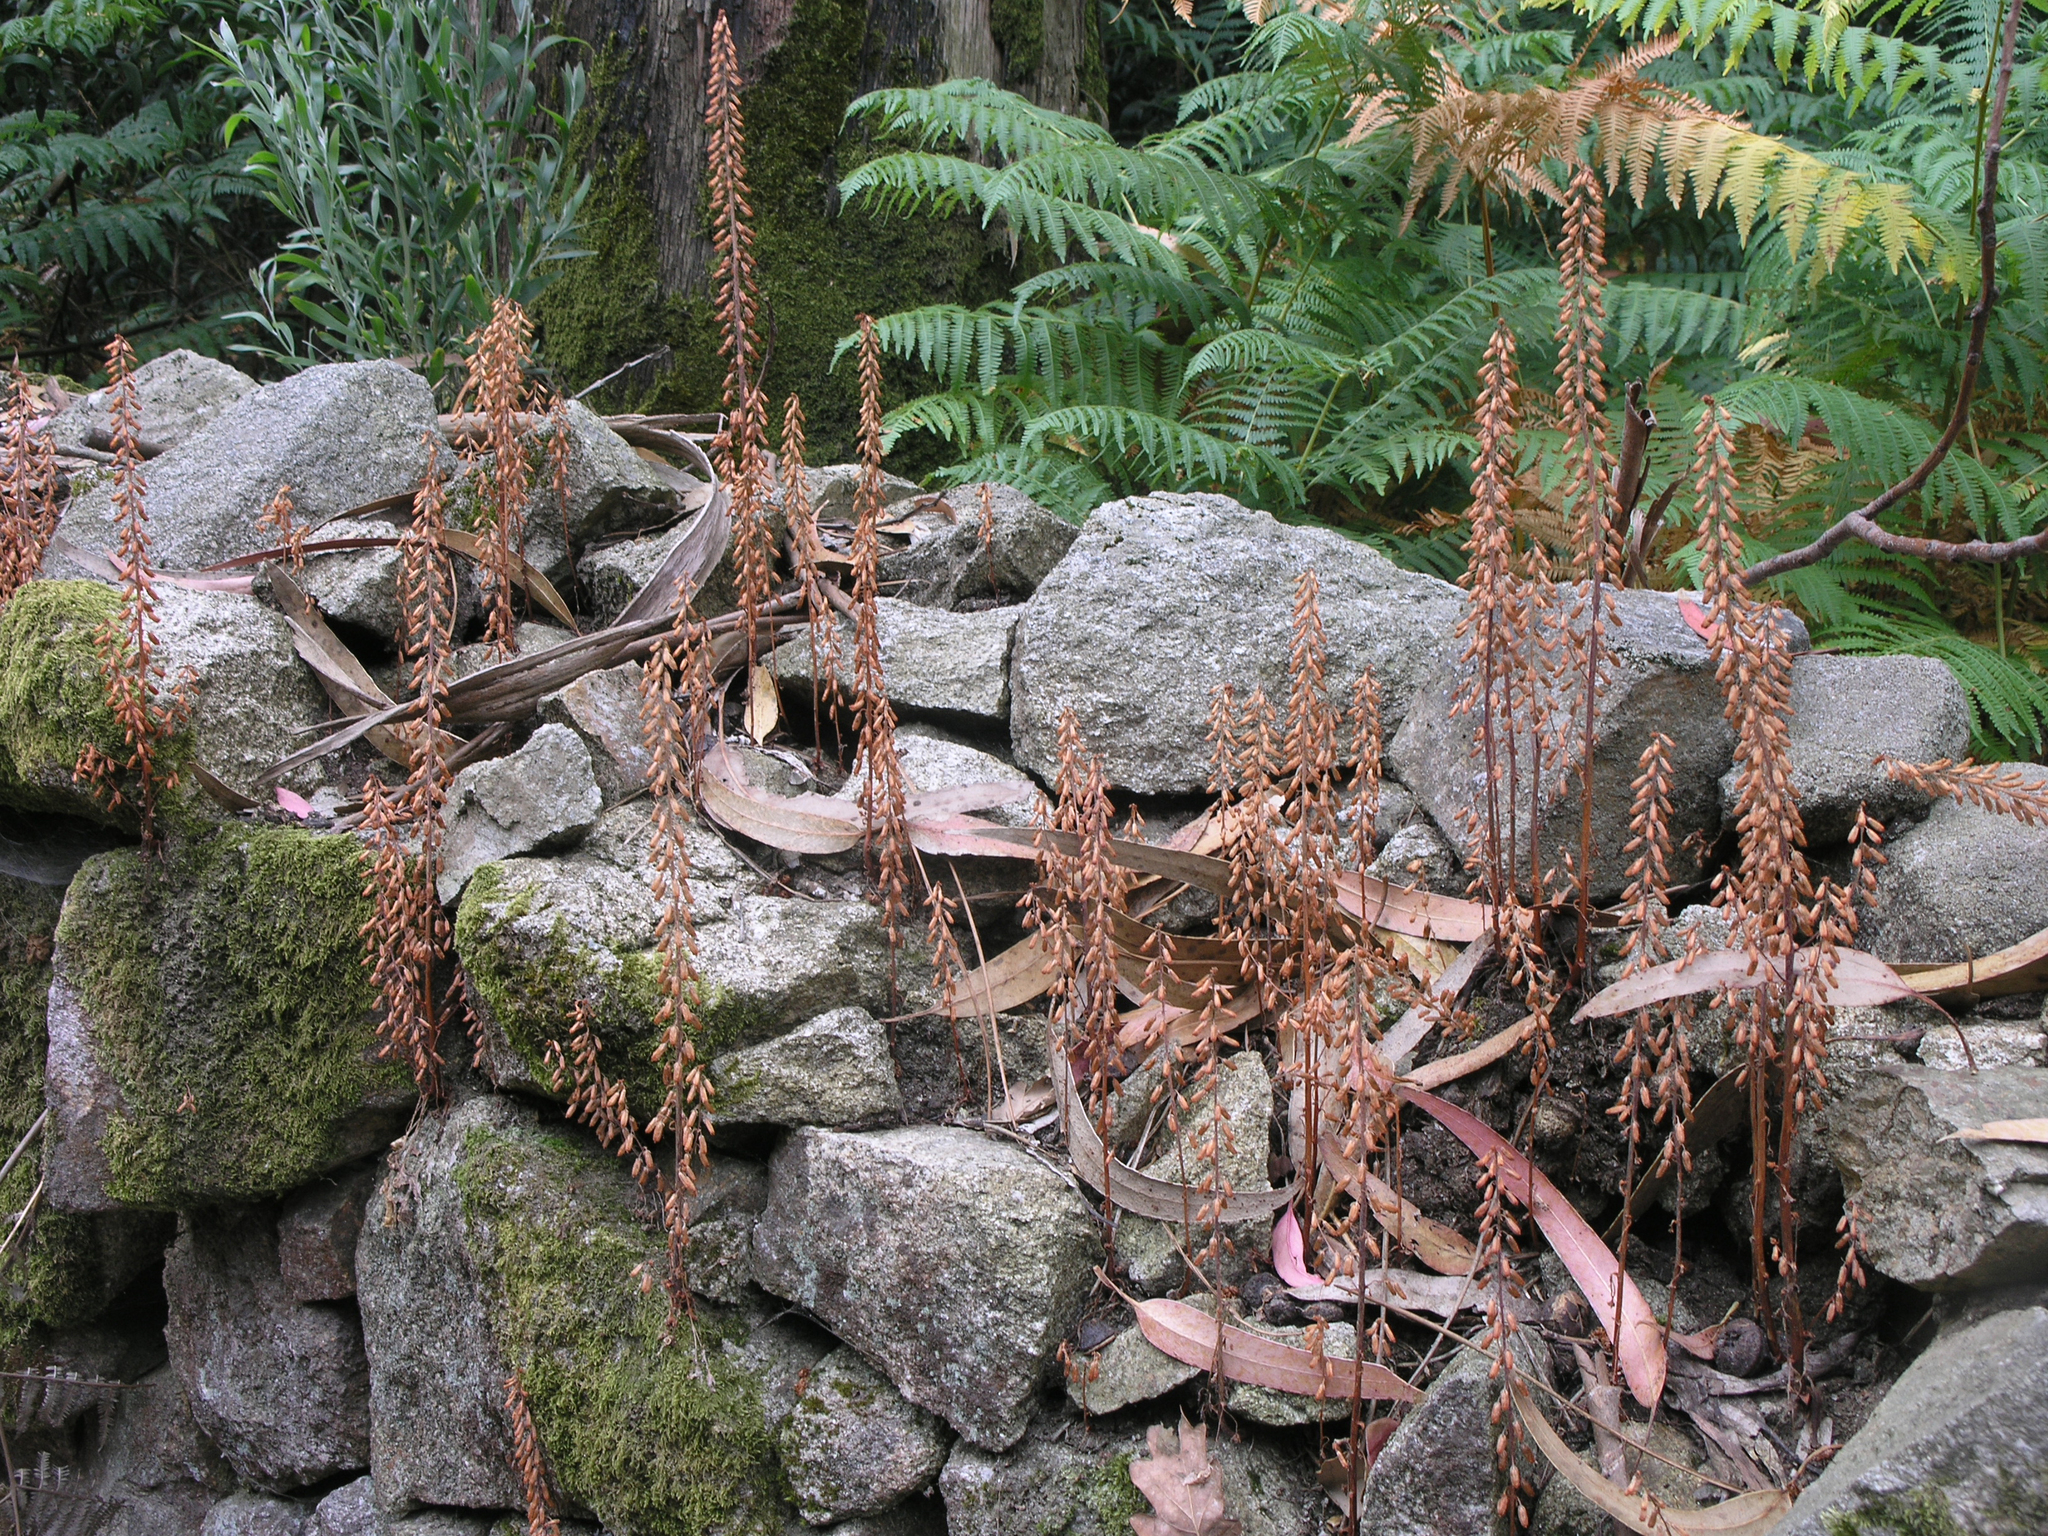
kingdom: Plantae
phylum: Tracheophyta
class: Magnoliopsida
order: Saxifragales
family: Crassulaceae
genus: Umbilicus
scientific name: Umbilicus rupestris
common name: Navelwort
